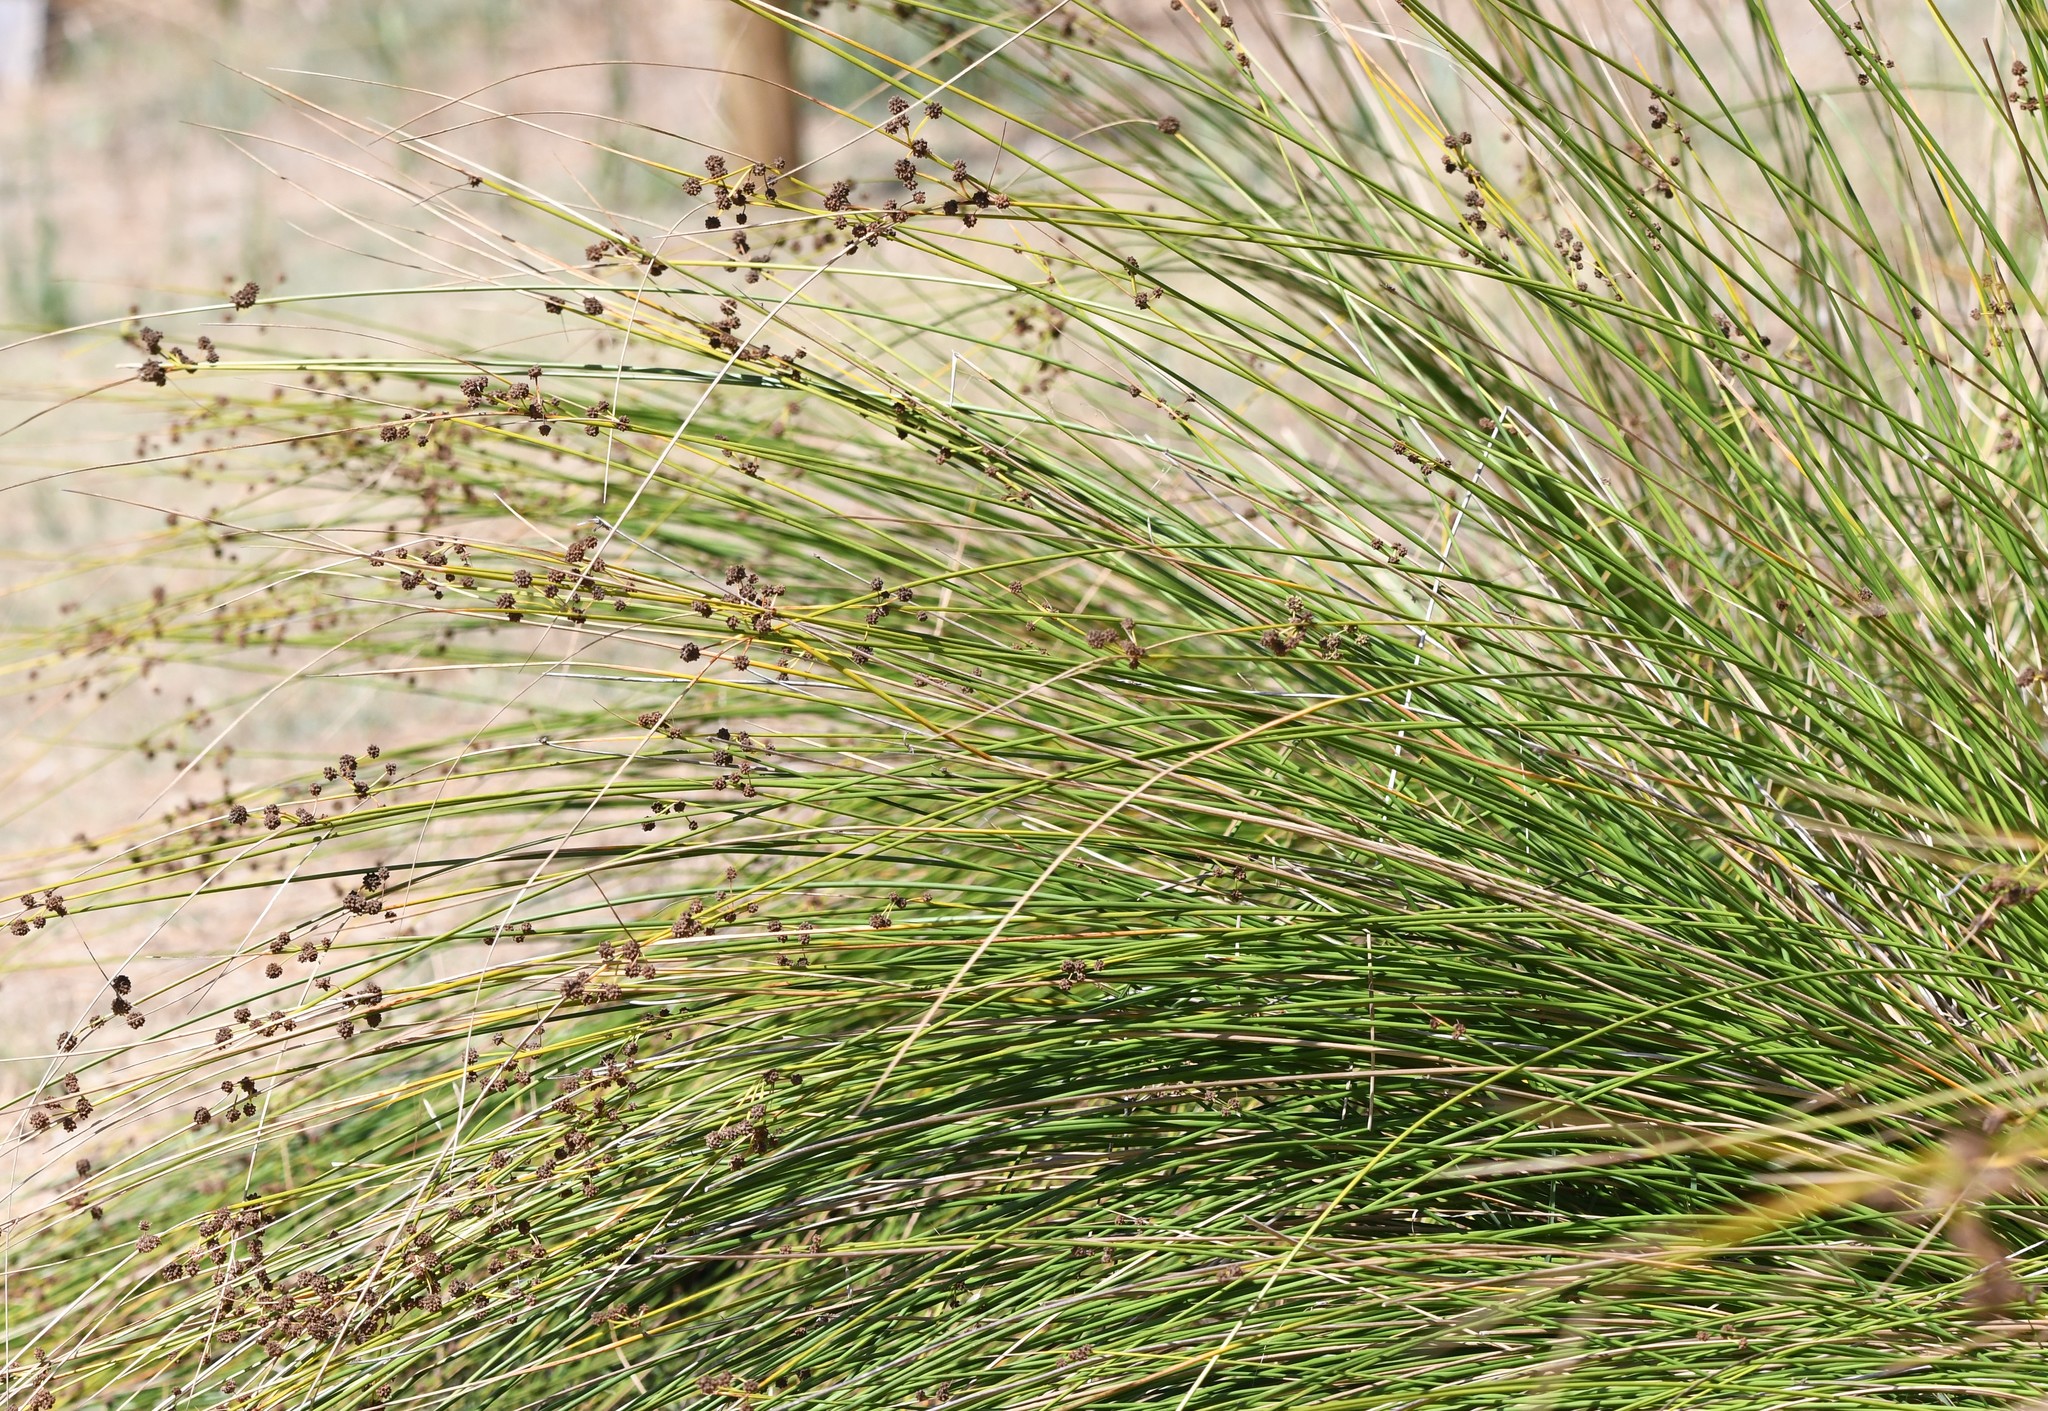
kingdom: Plantae
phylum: Tracheophyta
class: Liliopsida
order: Poales
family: Cyperaceae
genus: Scirpoides
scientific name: Scirpoides holoschoenus
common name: Round-headed club-rush
